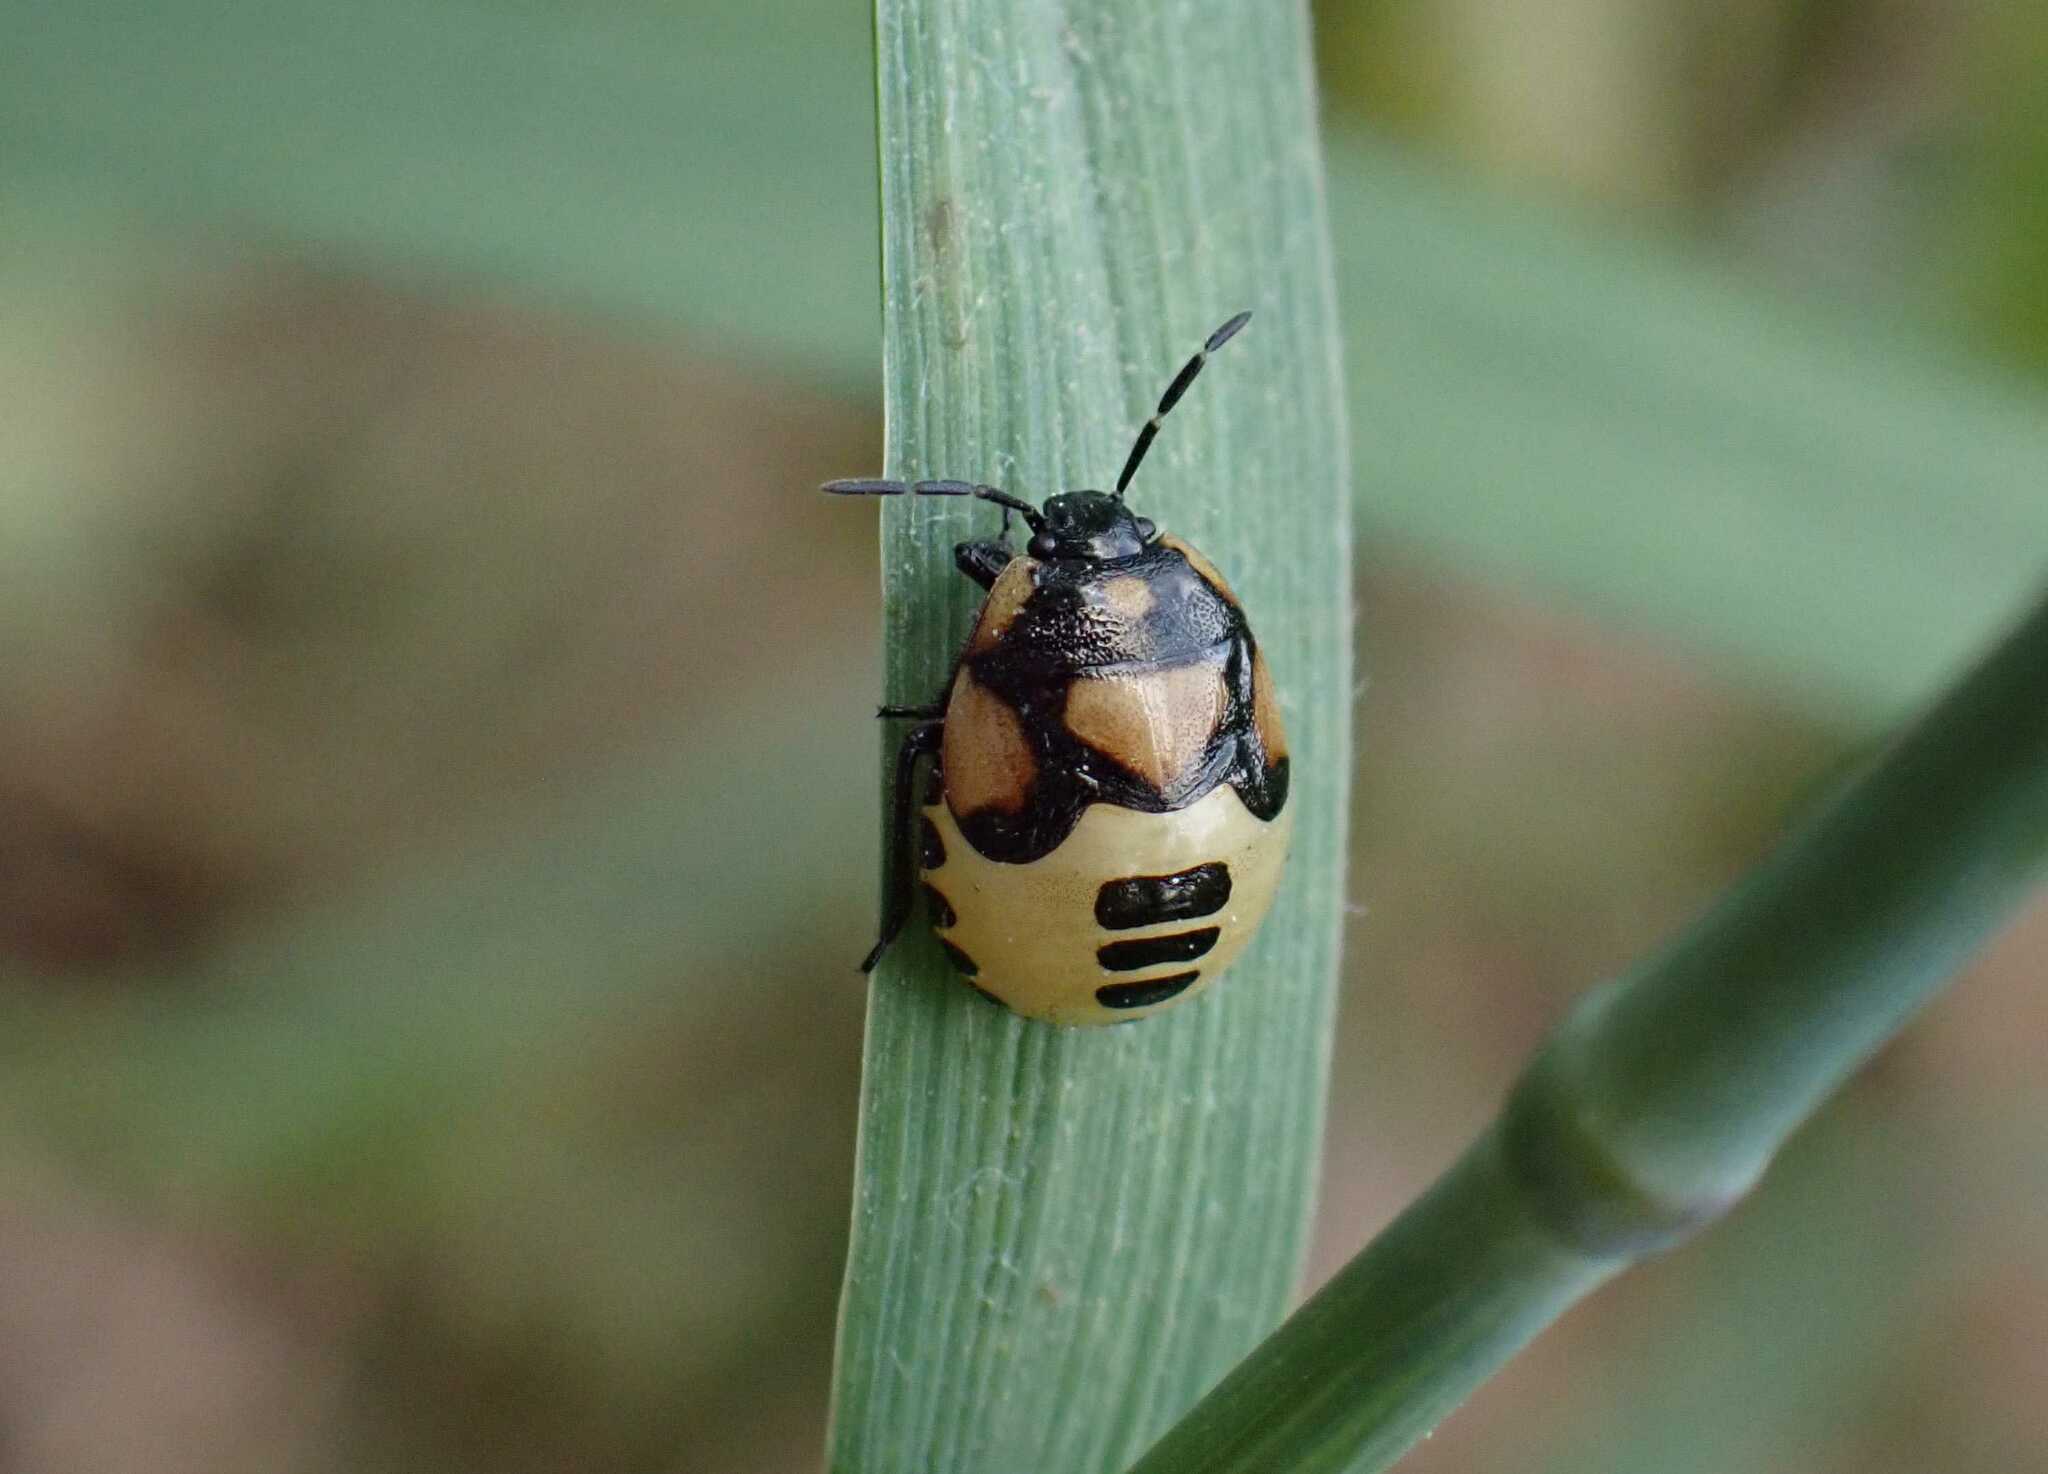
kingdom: Animalia
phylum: Arthropoda
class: Insecta
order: Hemiptera
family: Cydnidae
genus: Tritomegas
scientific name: Tritomegas bicolor
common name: Pied shieldbug
